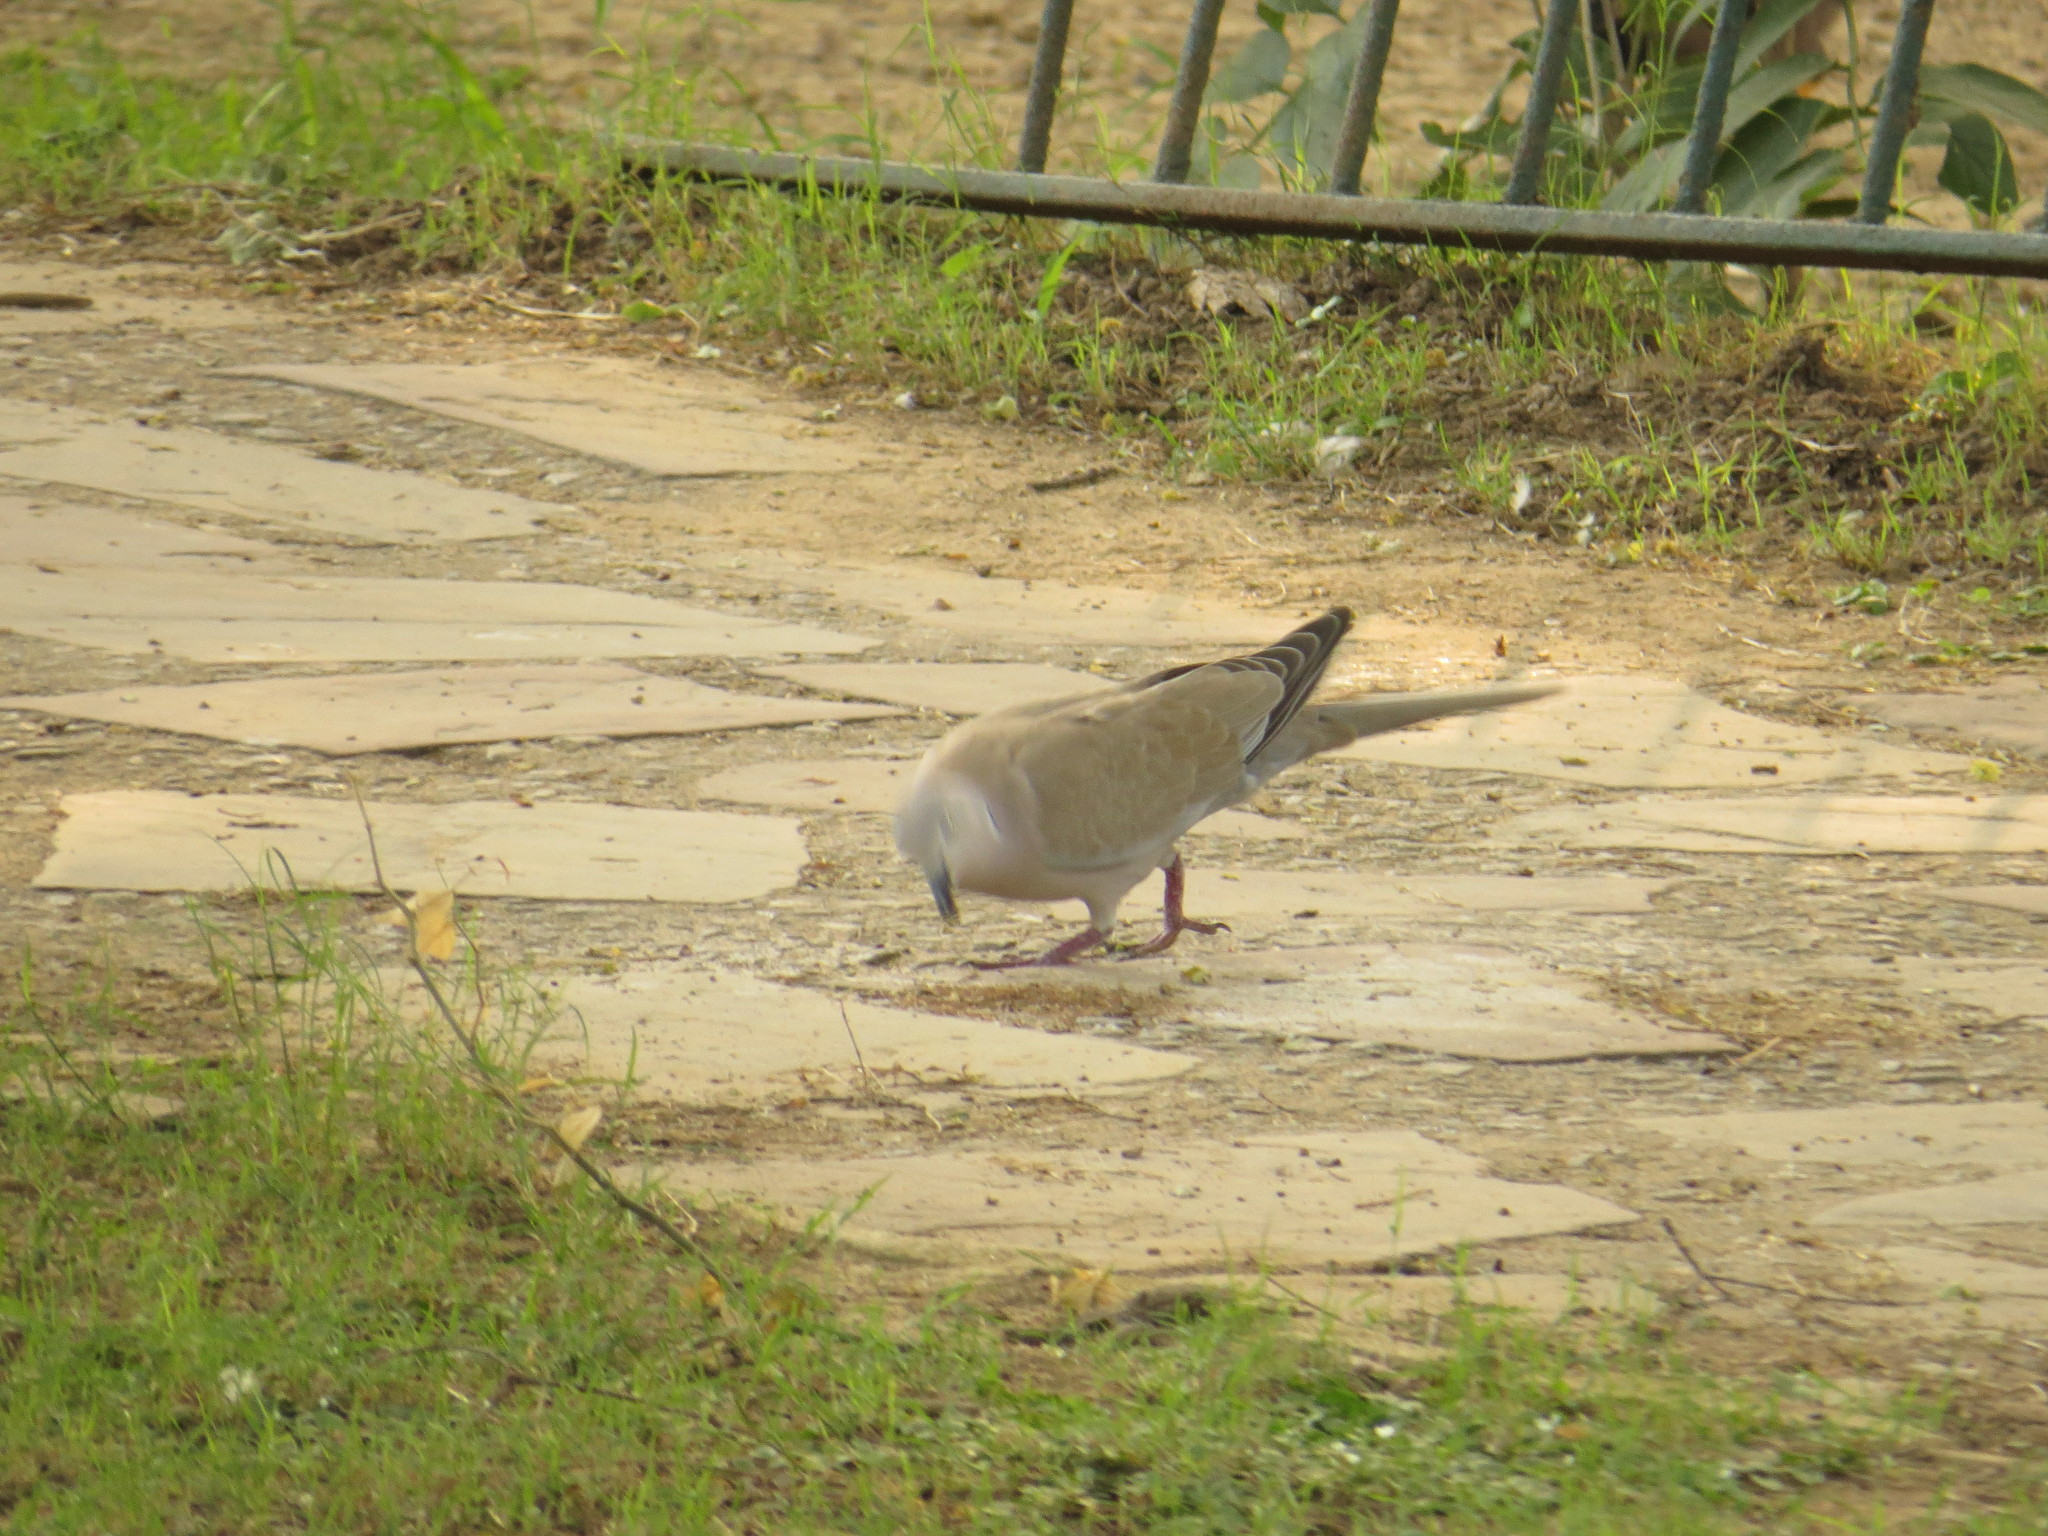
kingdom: Animalia
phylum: Chordata
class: Aves
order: Columbiformes
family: Columbidae
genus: Streptopelia
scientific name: Streptopelia decaocto
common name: Eurasian collared dove
